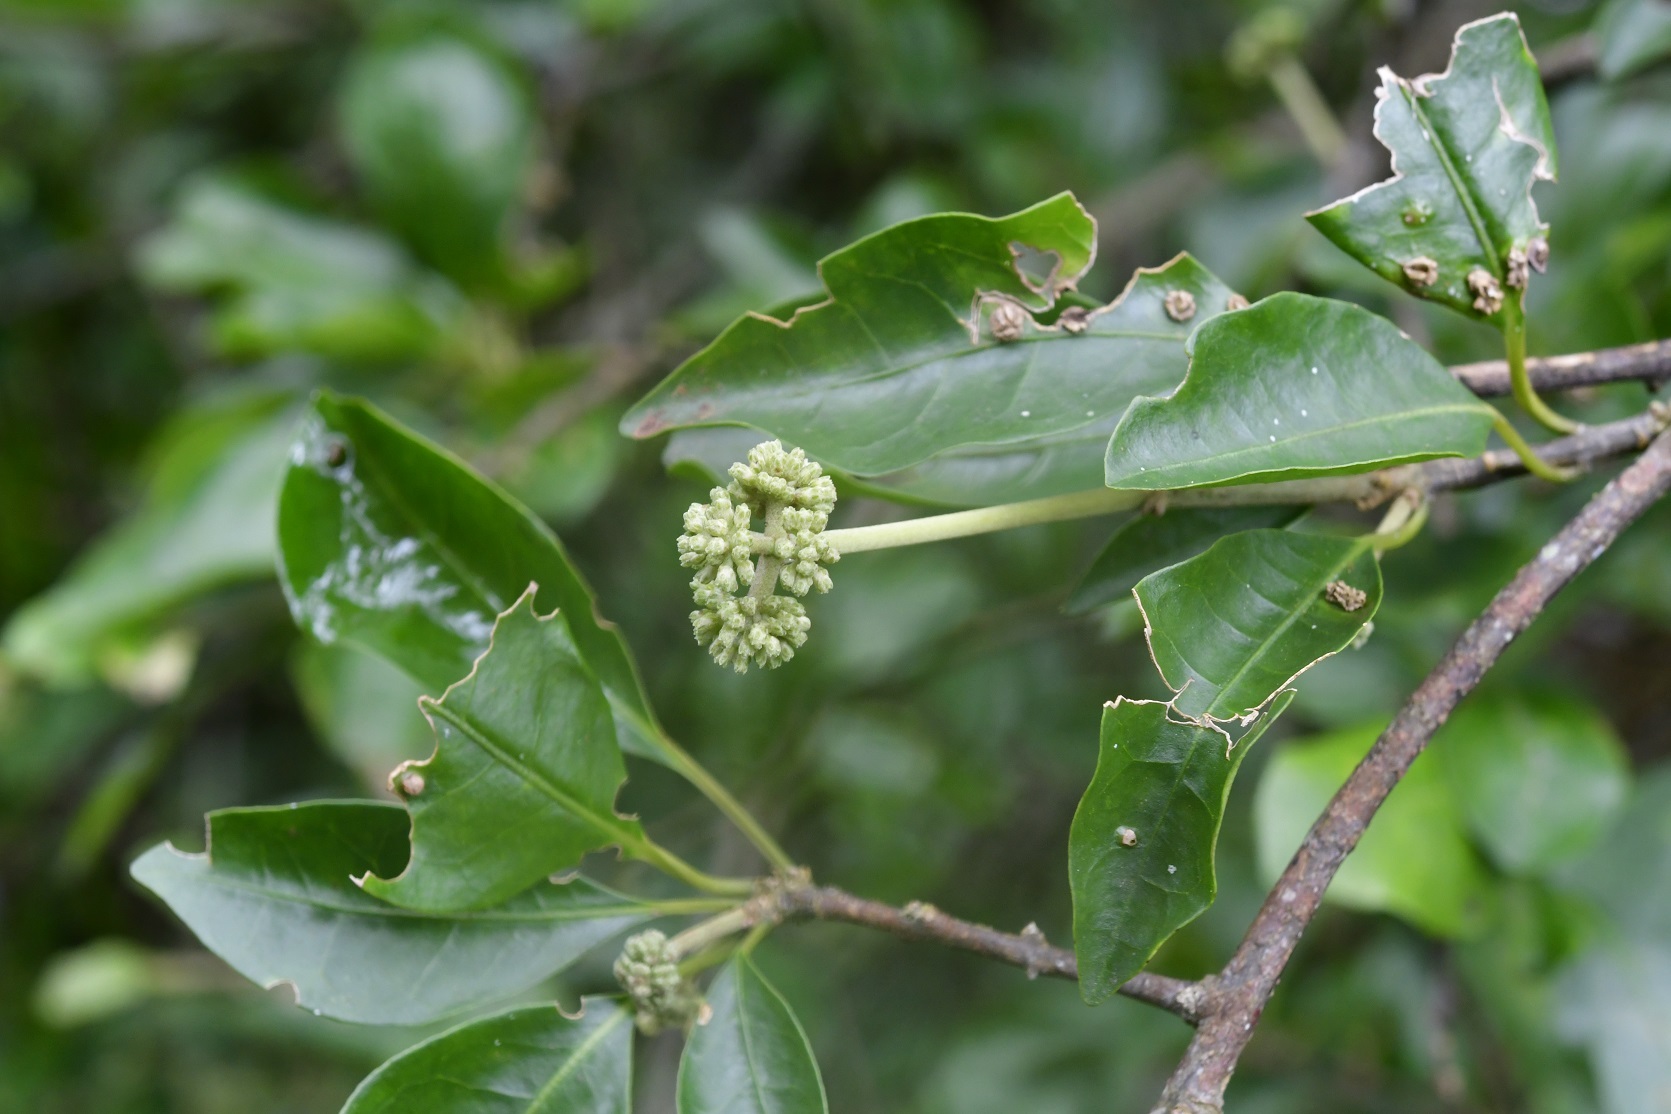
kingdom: Plantae
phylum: Tracheophyta
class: Magnoliopsida
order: Caryophyllales
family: Nyctaginaceae
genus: Pisonia
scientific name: Pisonia donnellsmithii
